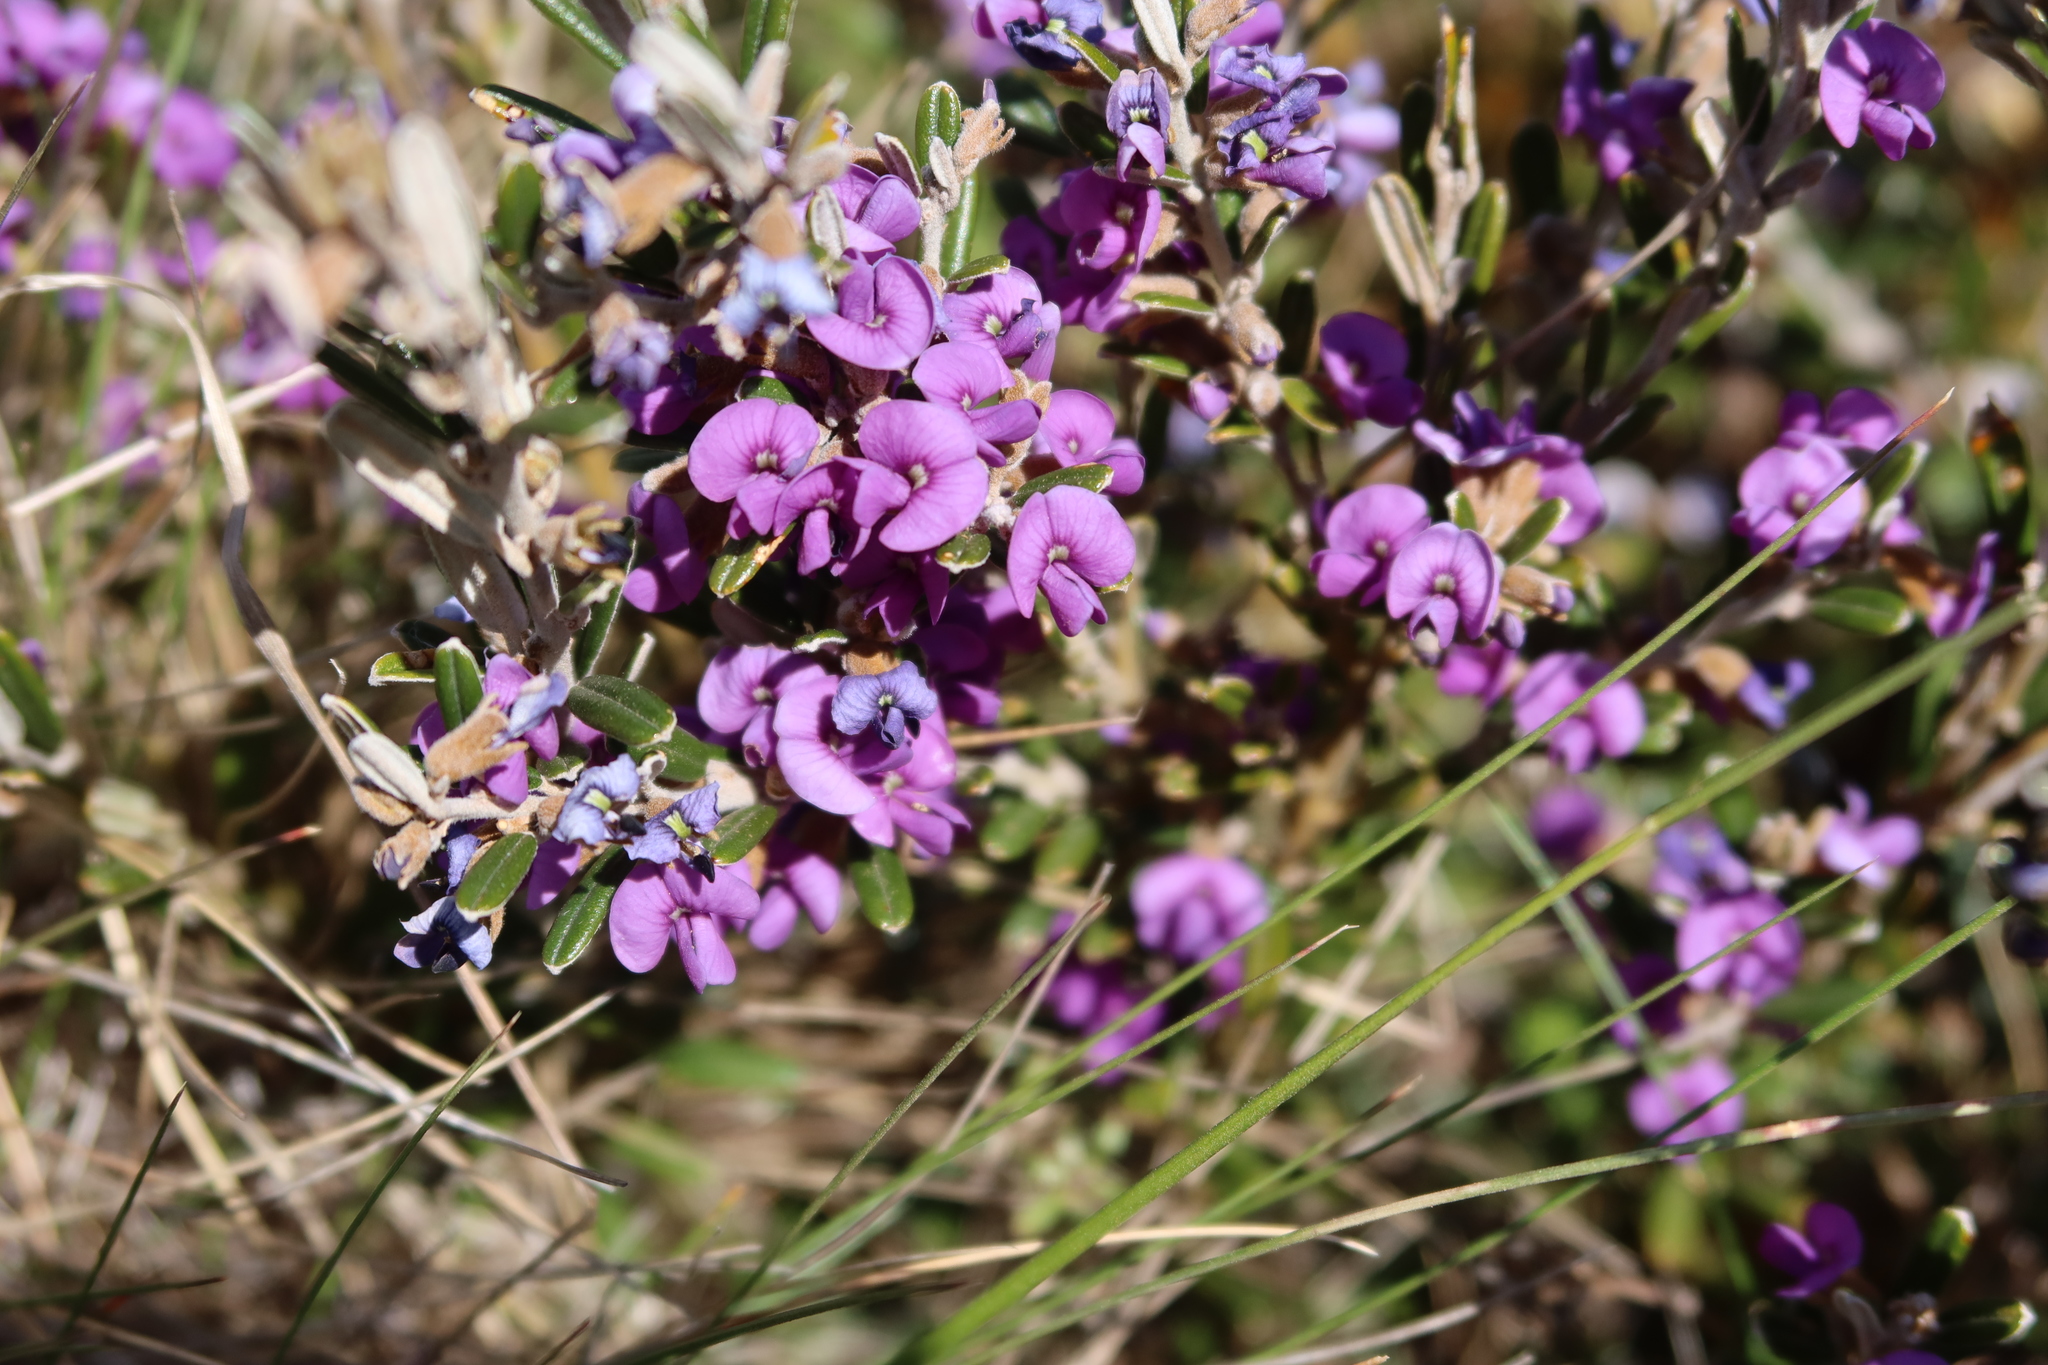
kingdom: Plantae
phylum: Tracheophyta
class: Magnoliopsida
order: Fabales
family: Fabaceae
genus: Hovea
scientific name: Hovea montana
